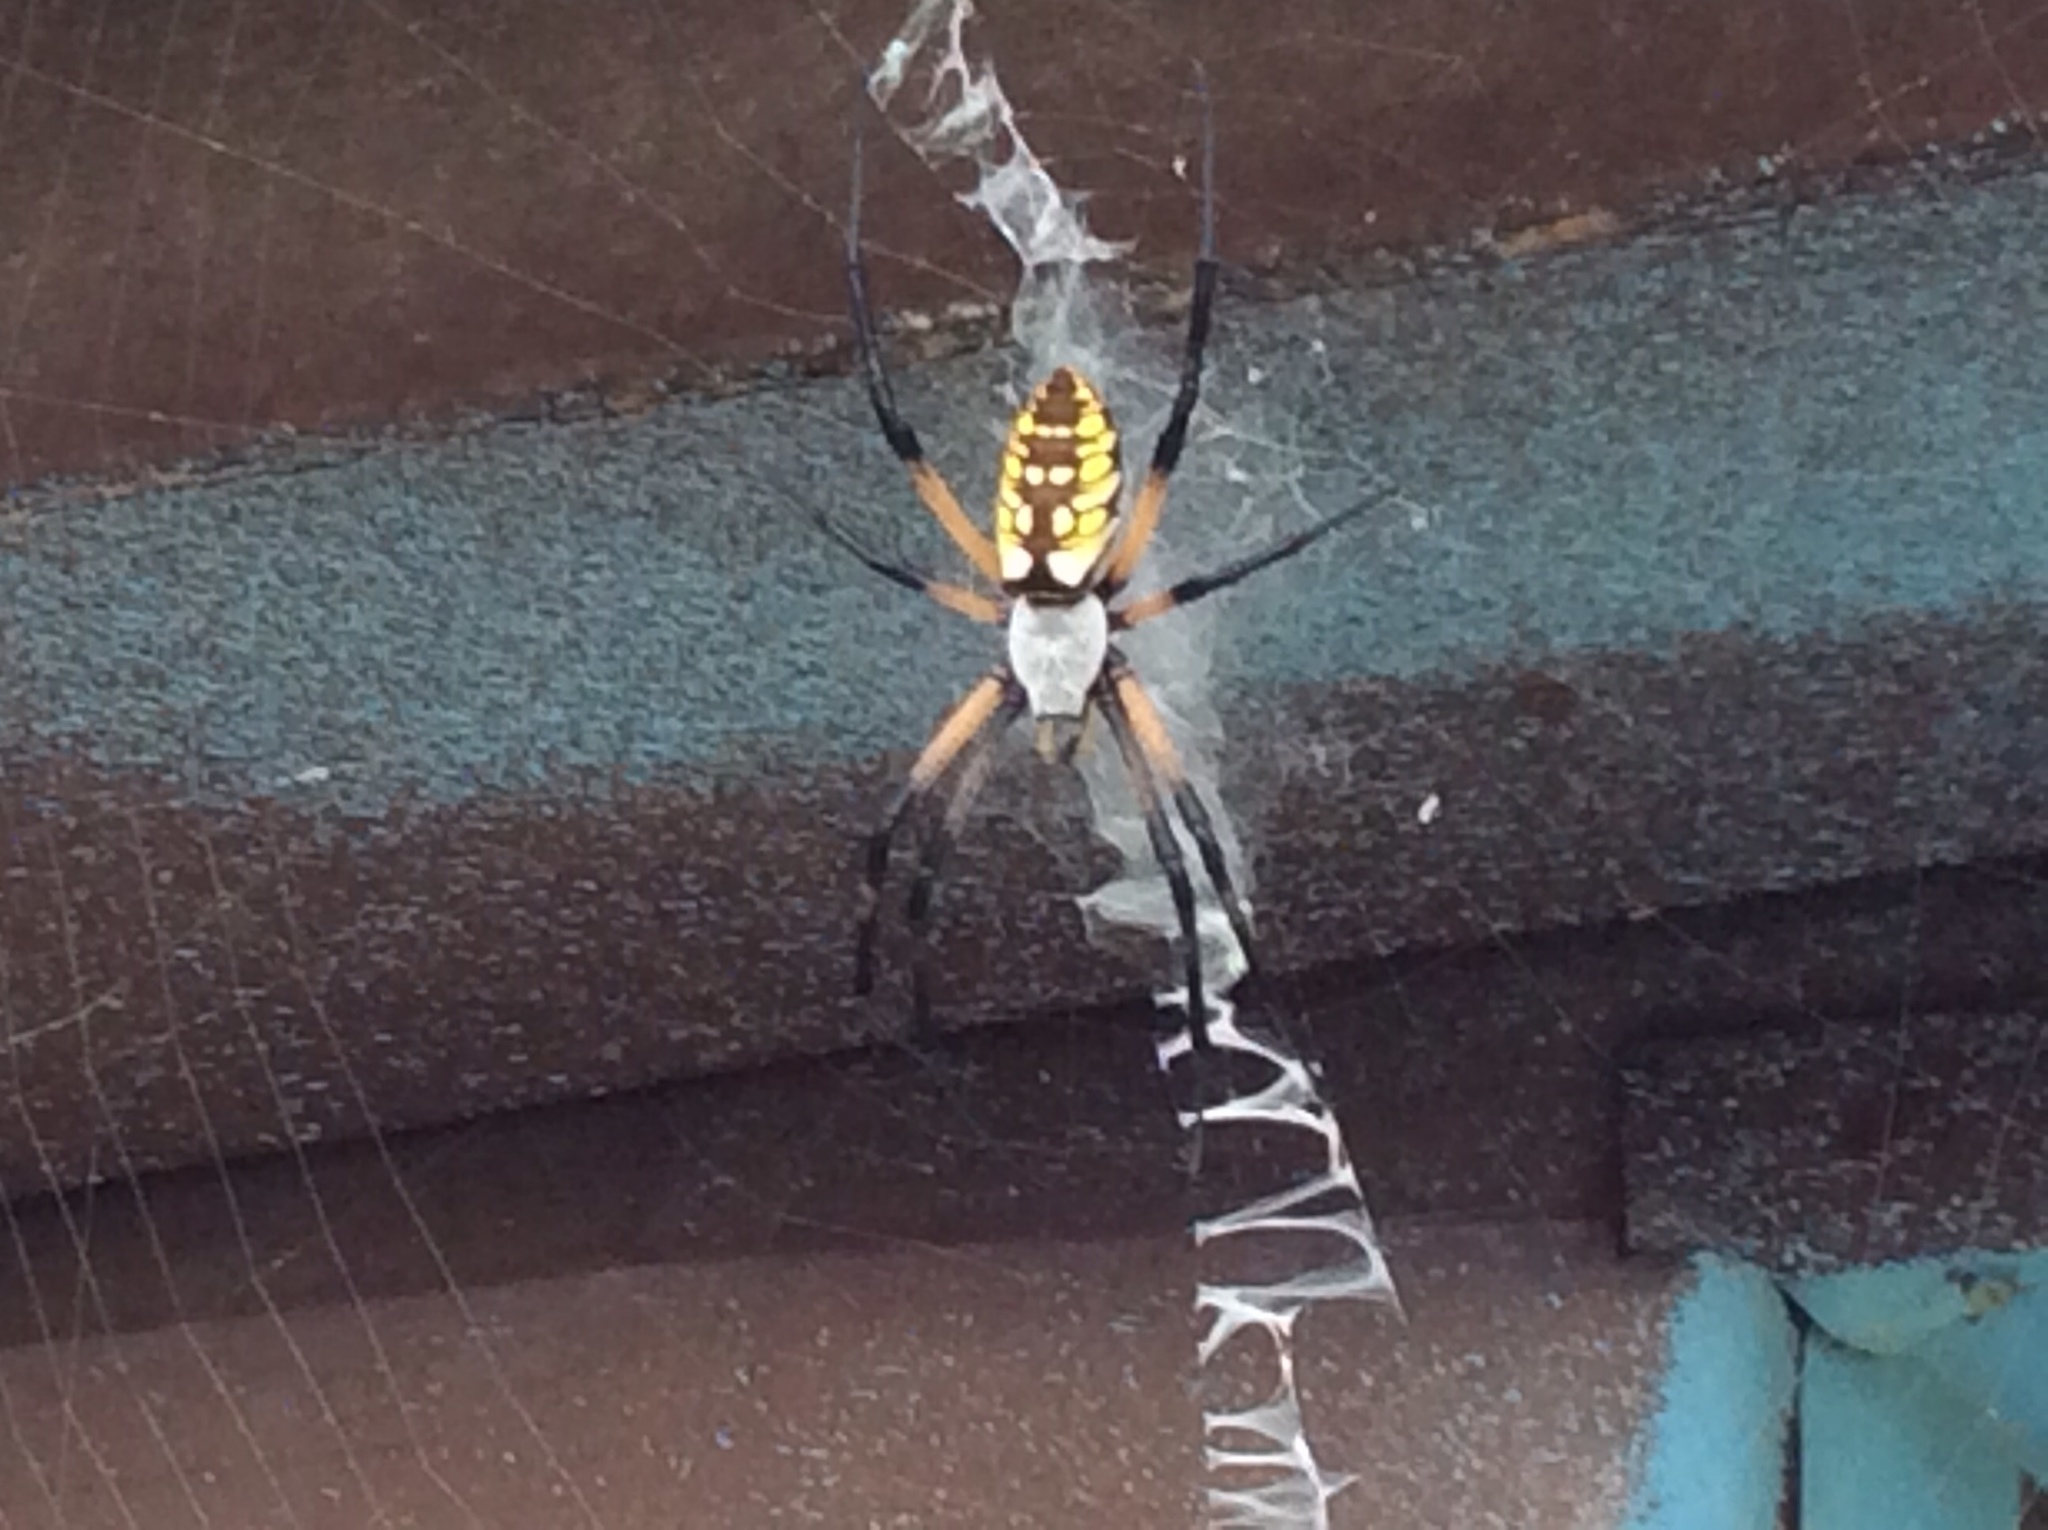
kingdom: Animalia
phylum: Arthropoda
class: Arachnida
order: Araneae
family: Araneidae
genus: Argiope
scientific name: Argiope aurantia
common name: Orb weavers
